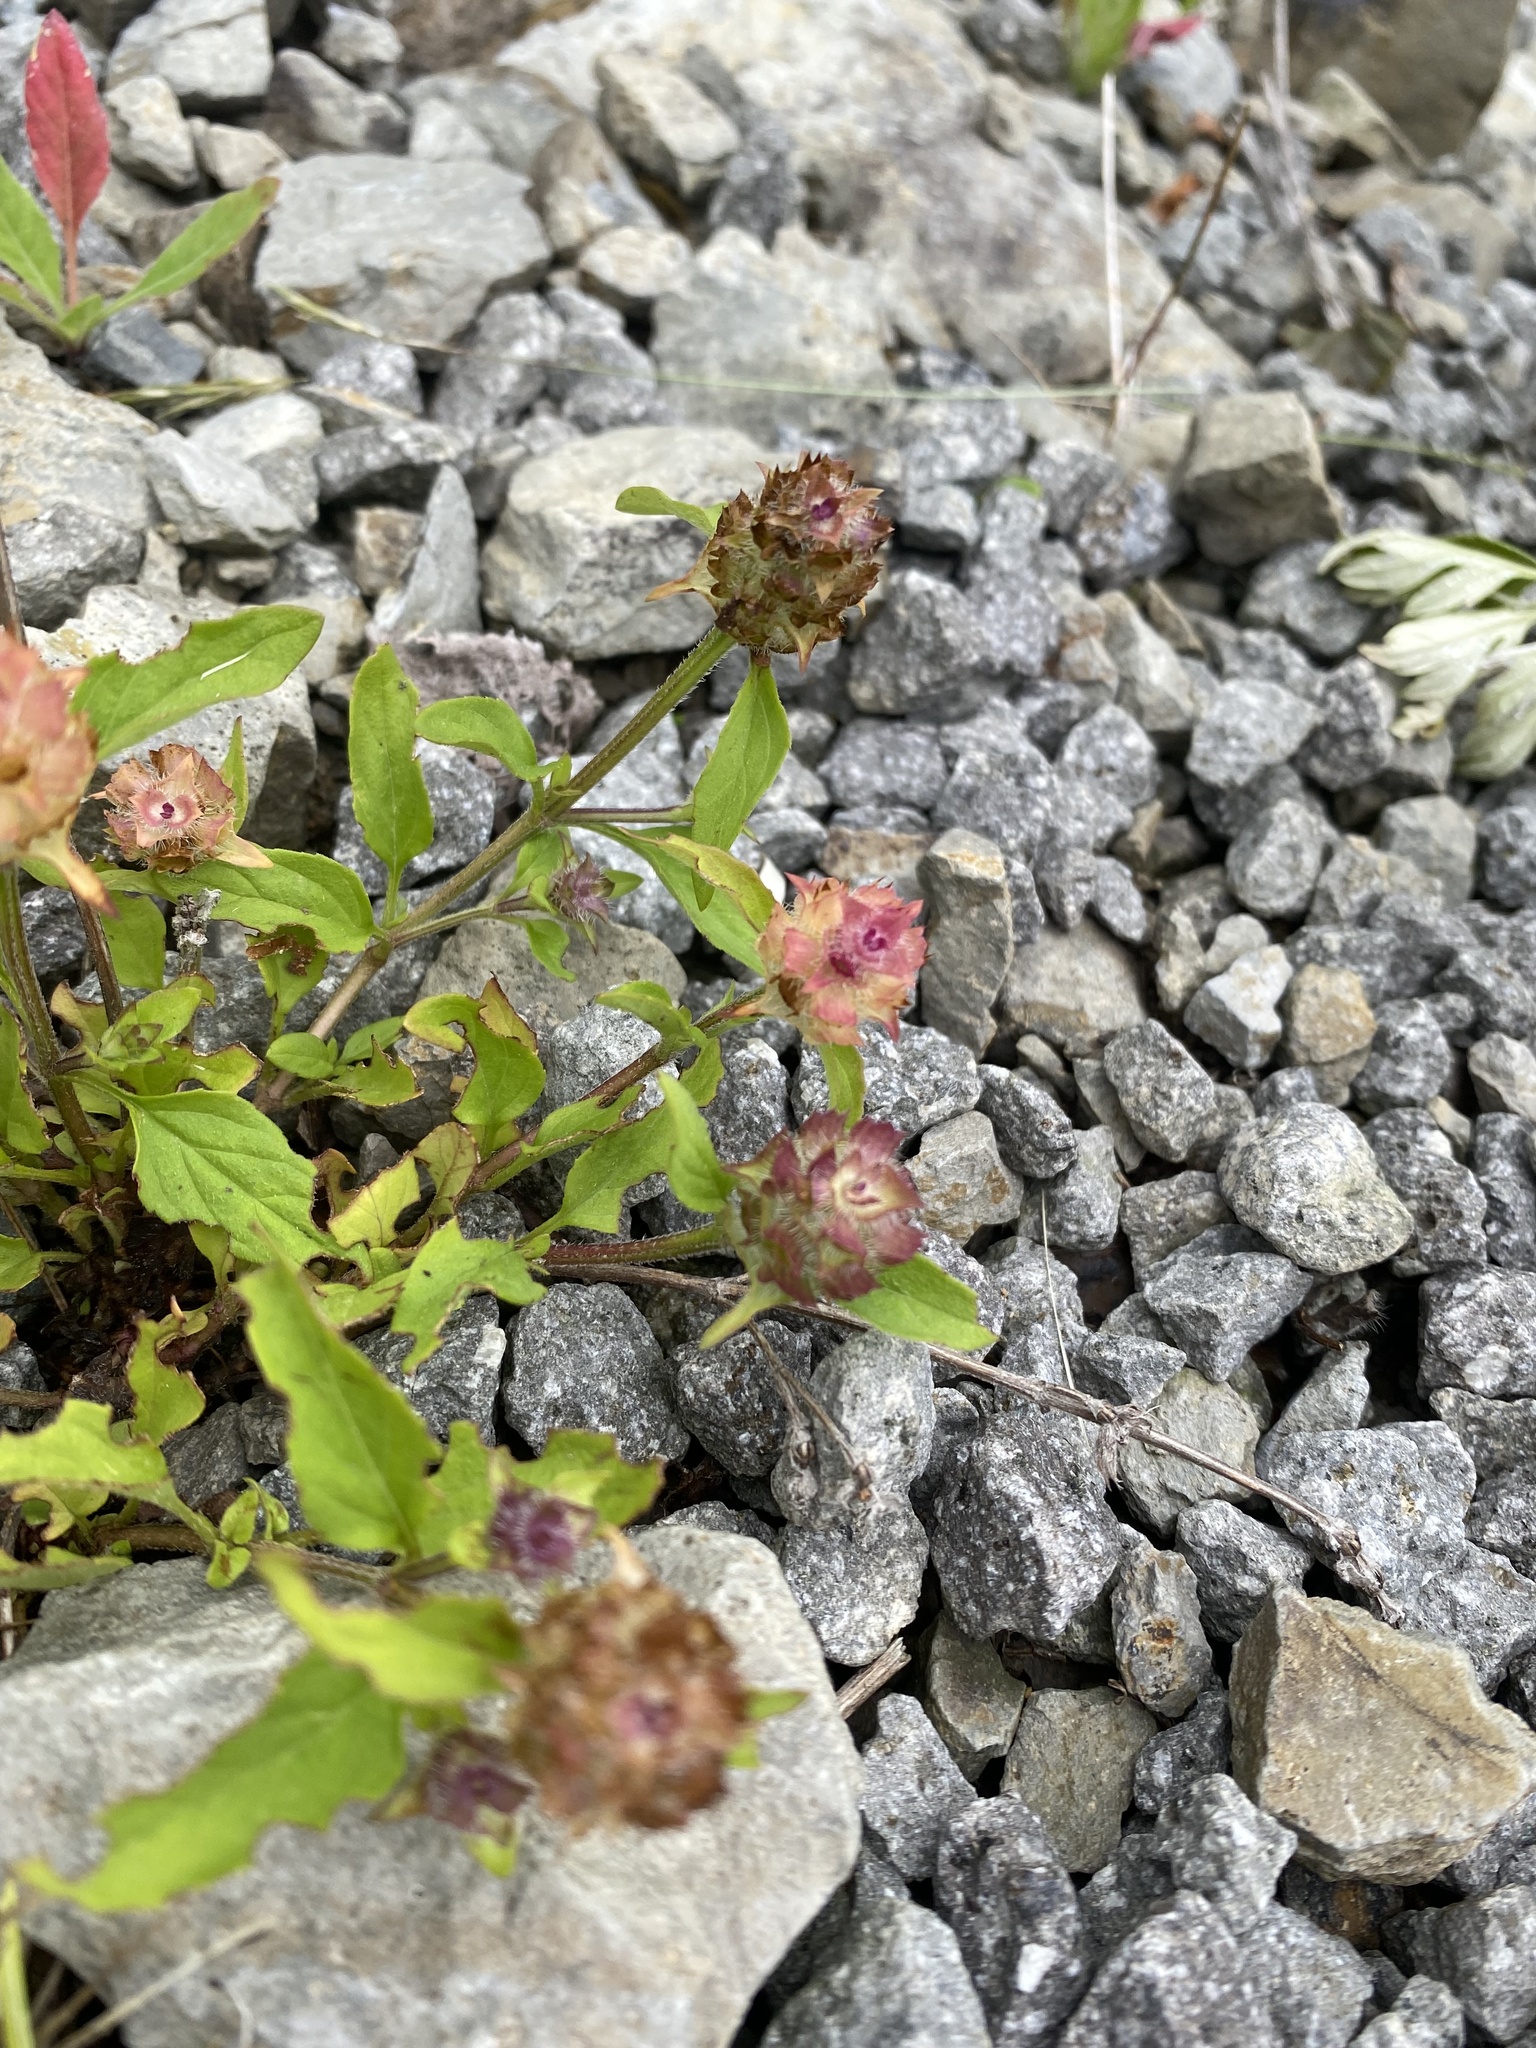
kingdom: Plantae
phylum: Tracheophyta
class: Magnoliopsida
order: Lamiales
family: Lamiaceae
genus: Prunella
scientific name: Prunella vulgaris
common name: Heal-all
